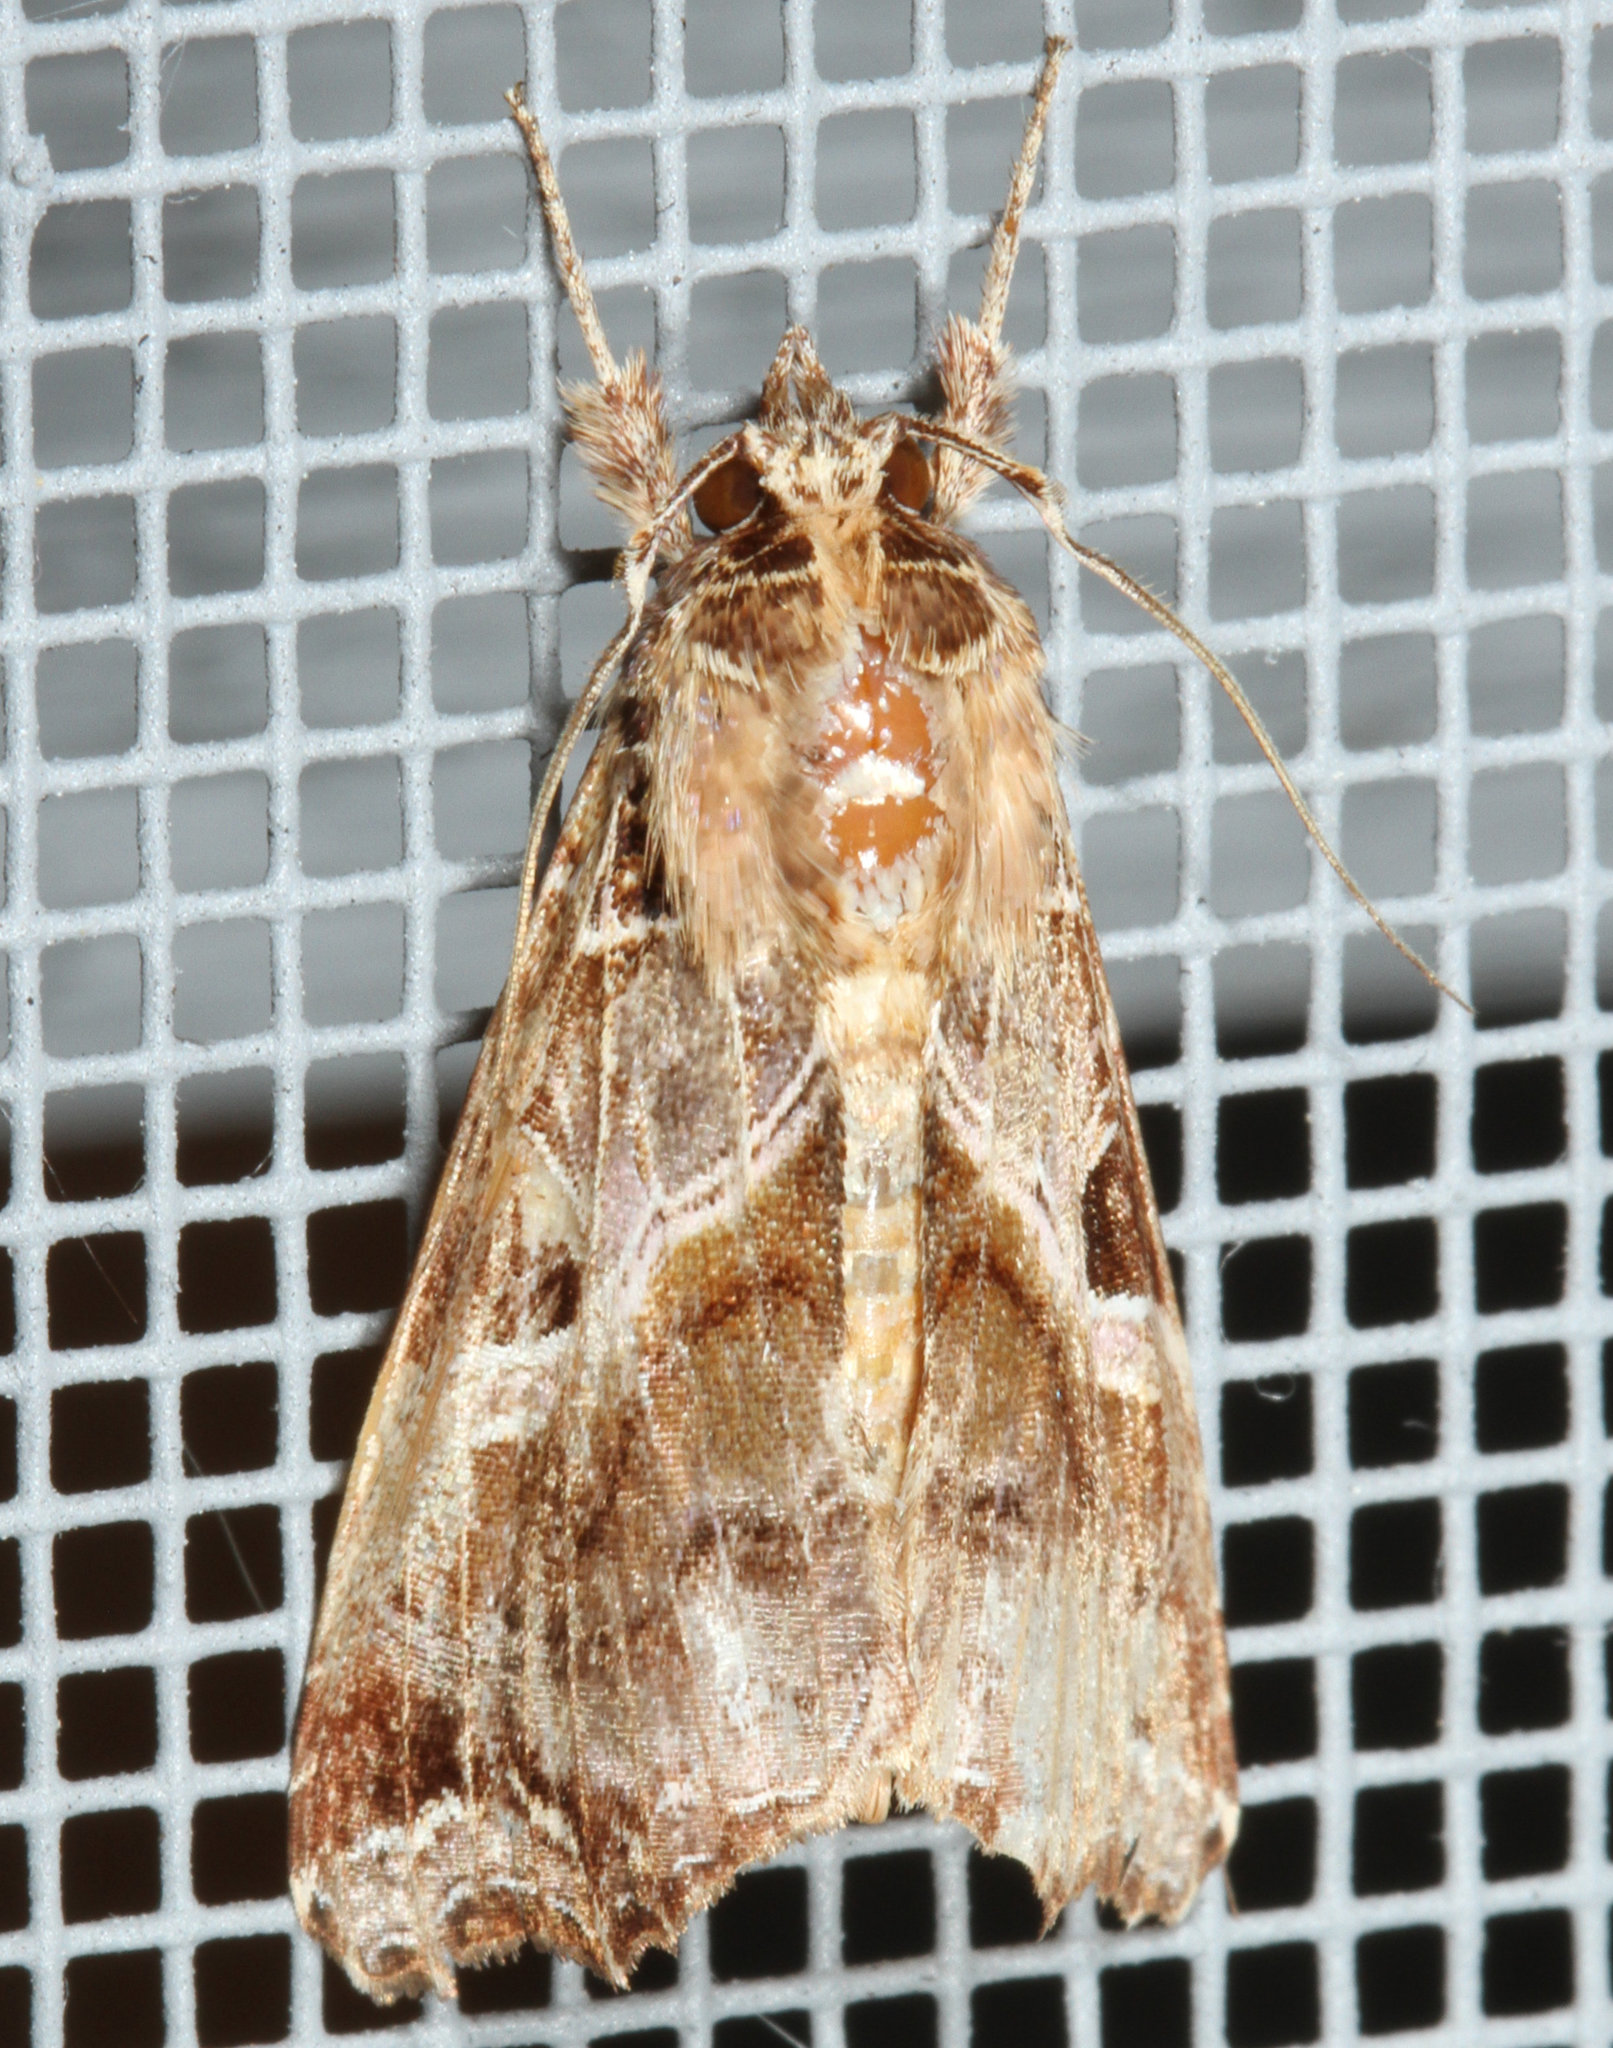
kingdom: Animalia
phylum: Arthropoda
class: Insecta
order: Lepidoptera
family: Noctuidae
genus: Callopistria
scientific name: Callopistria floridensis
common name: Florida fern moth
